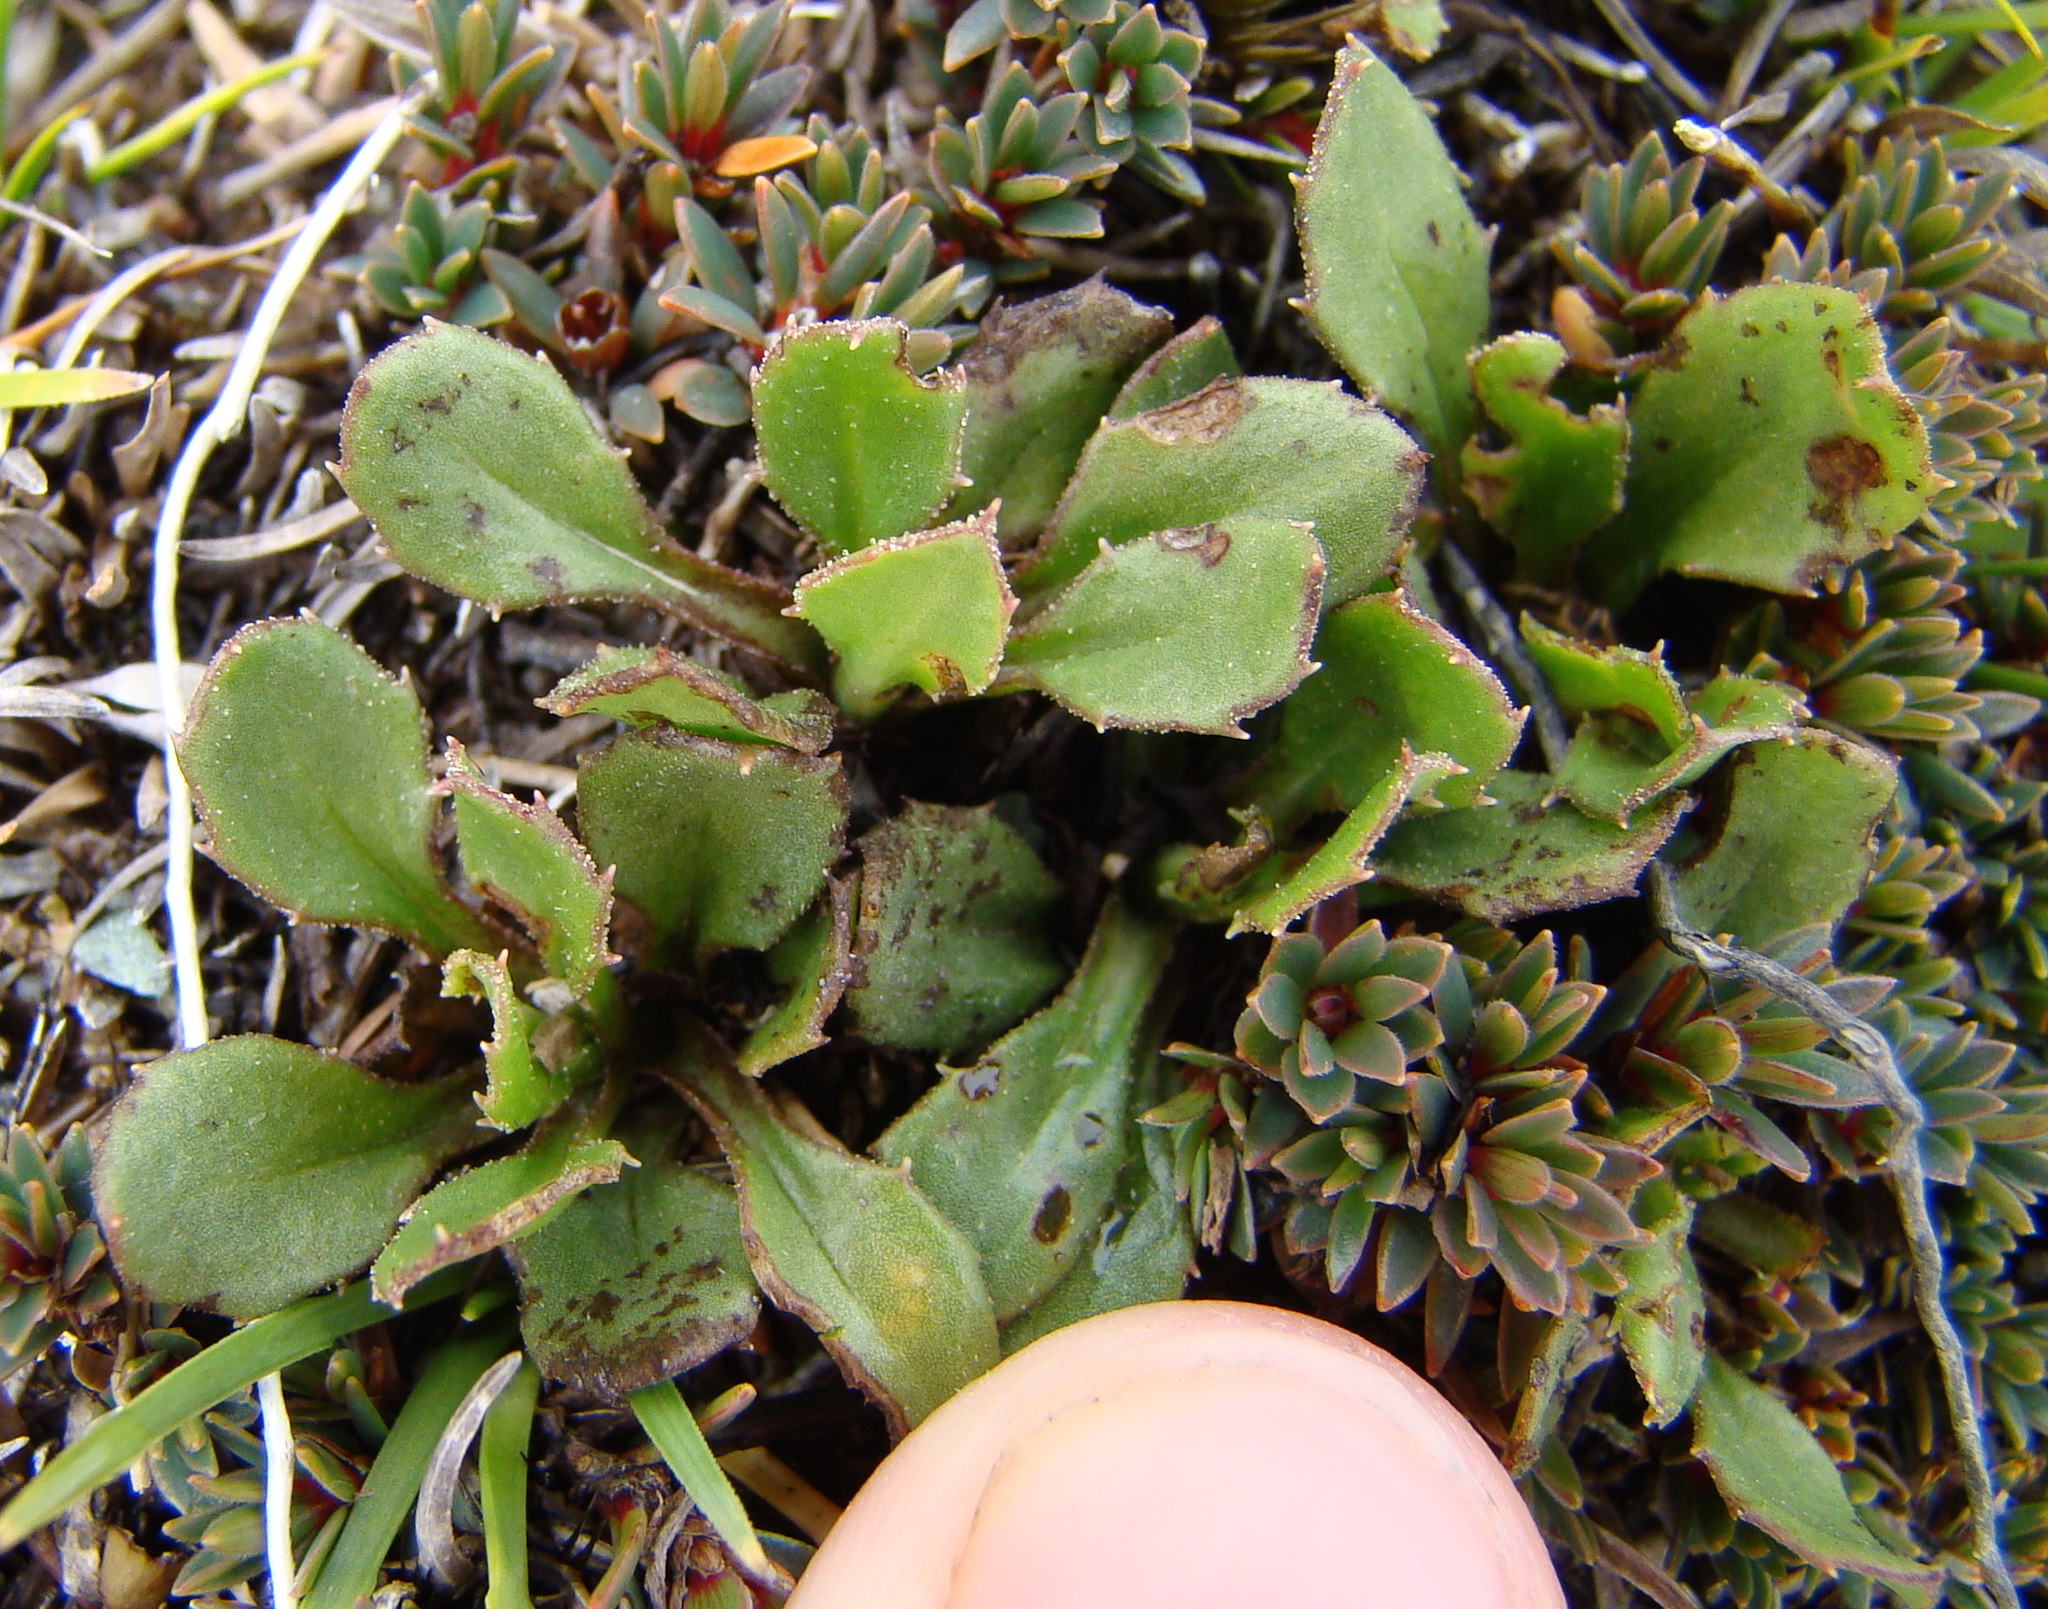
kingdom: Plantae
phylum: Tracheophyta
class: Magnoliopsida
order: Asterales
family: Asteraceae
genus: Celmisia
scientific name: Celmisia glandulosa
